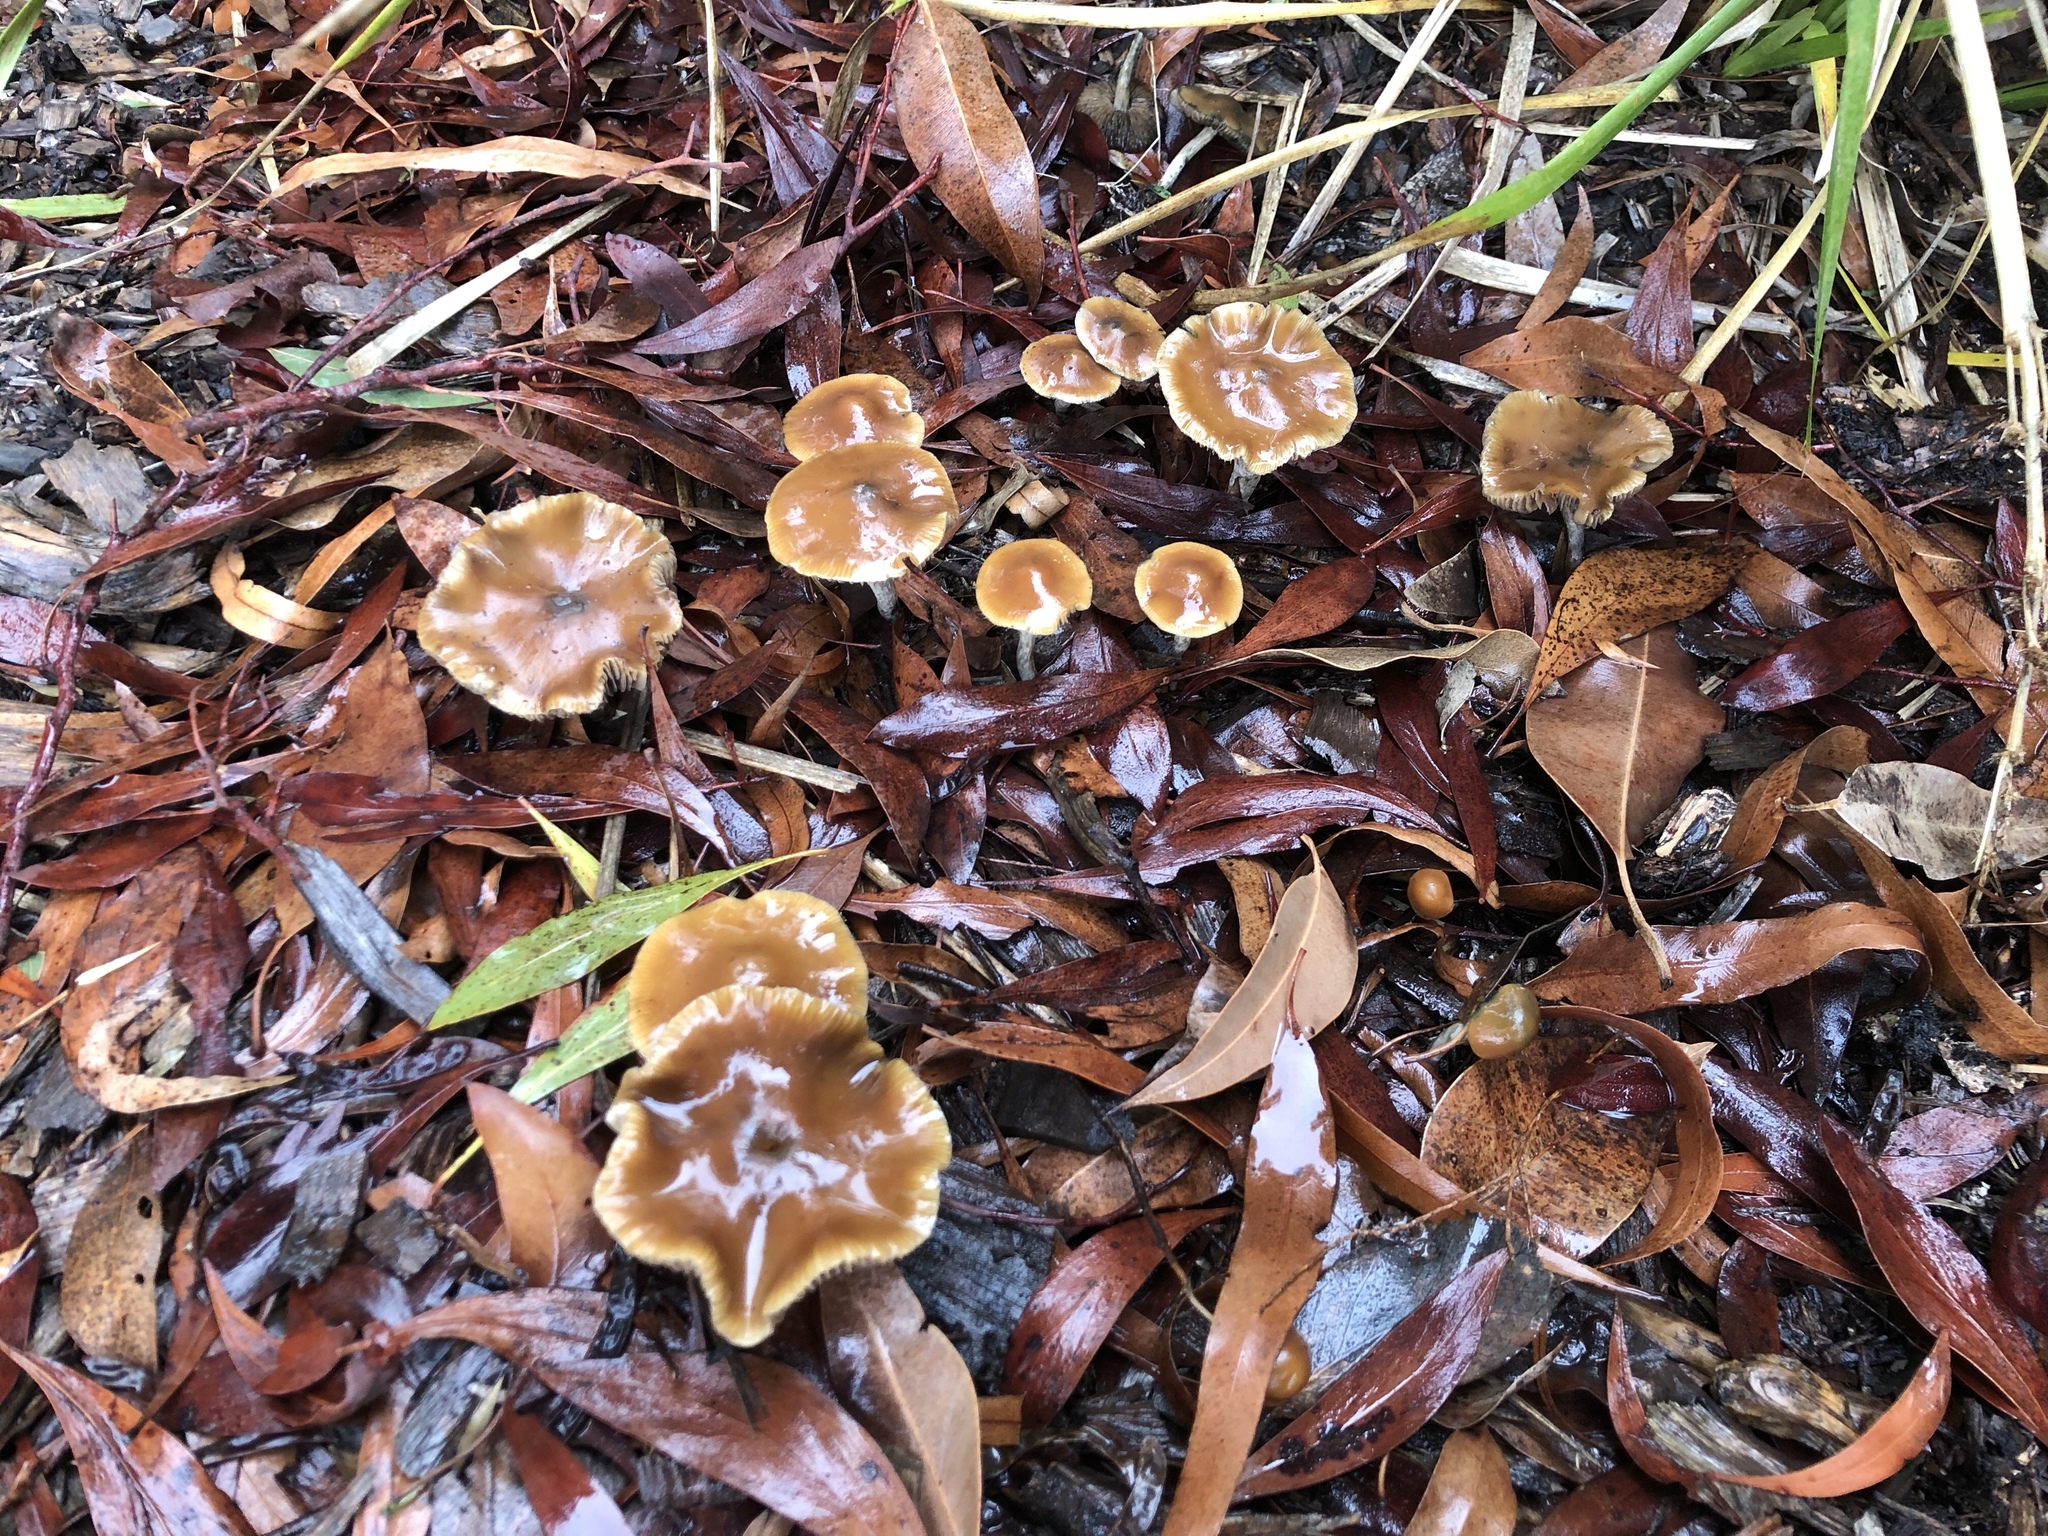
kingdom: Fungi
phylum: Basidiomycota
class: Agaricomycetes
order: Agaricales
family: Hymenogastraceae
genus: Psilocybe
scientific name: Psilocybe subaeruginosa
